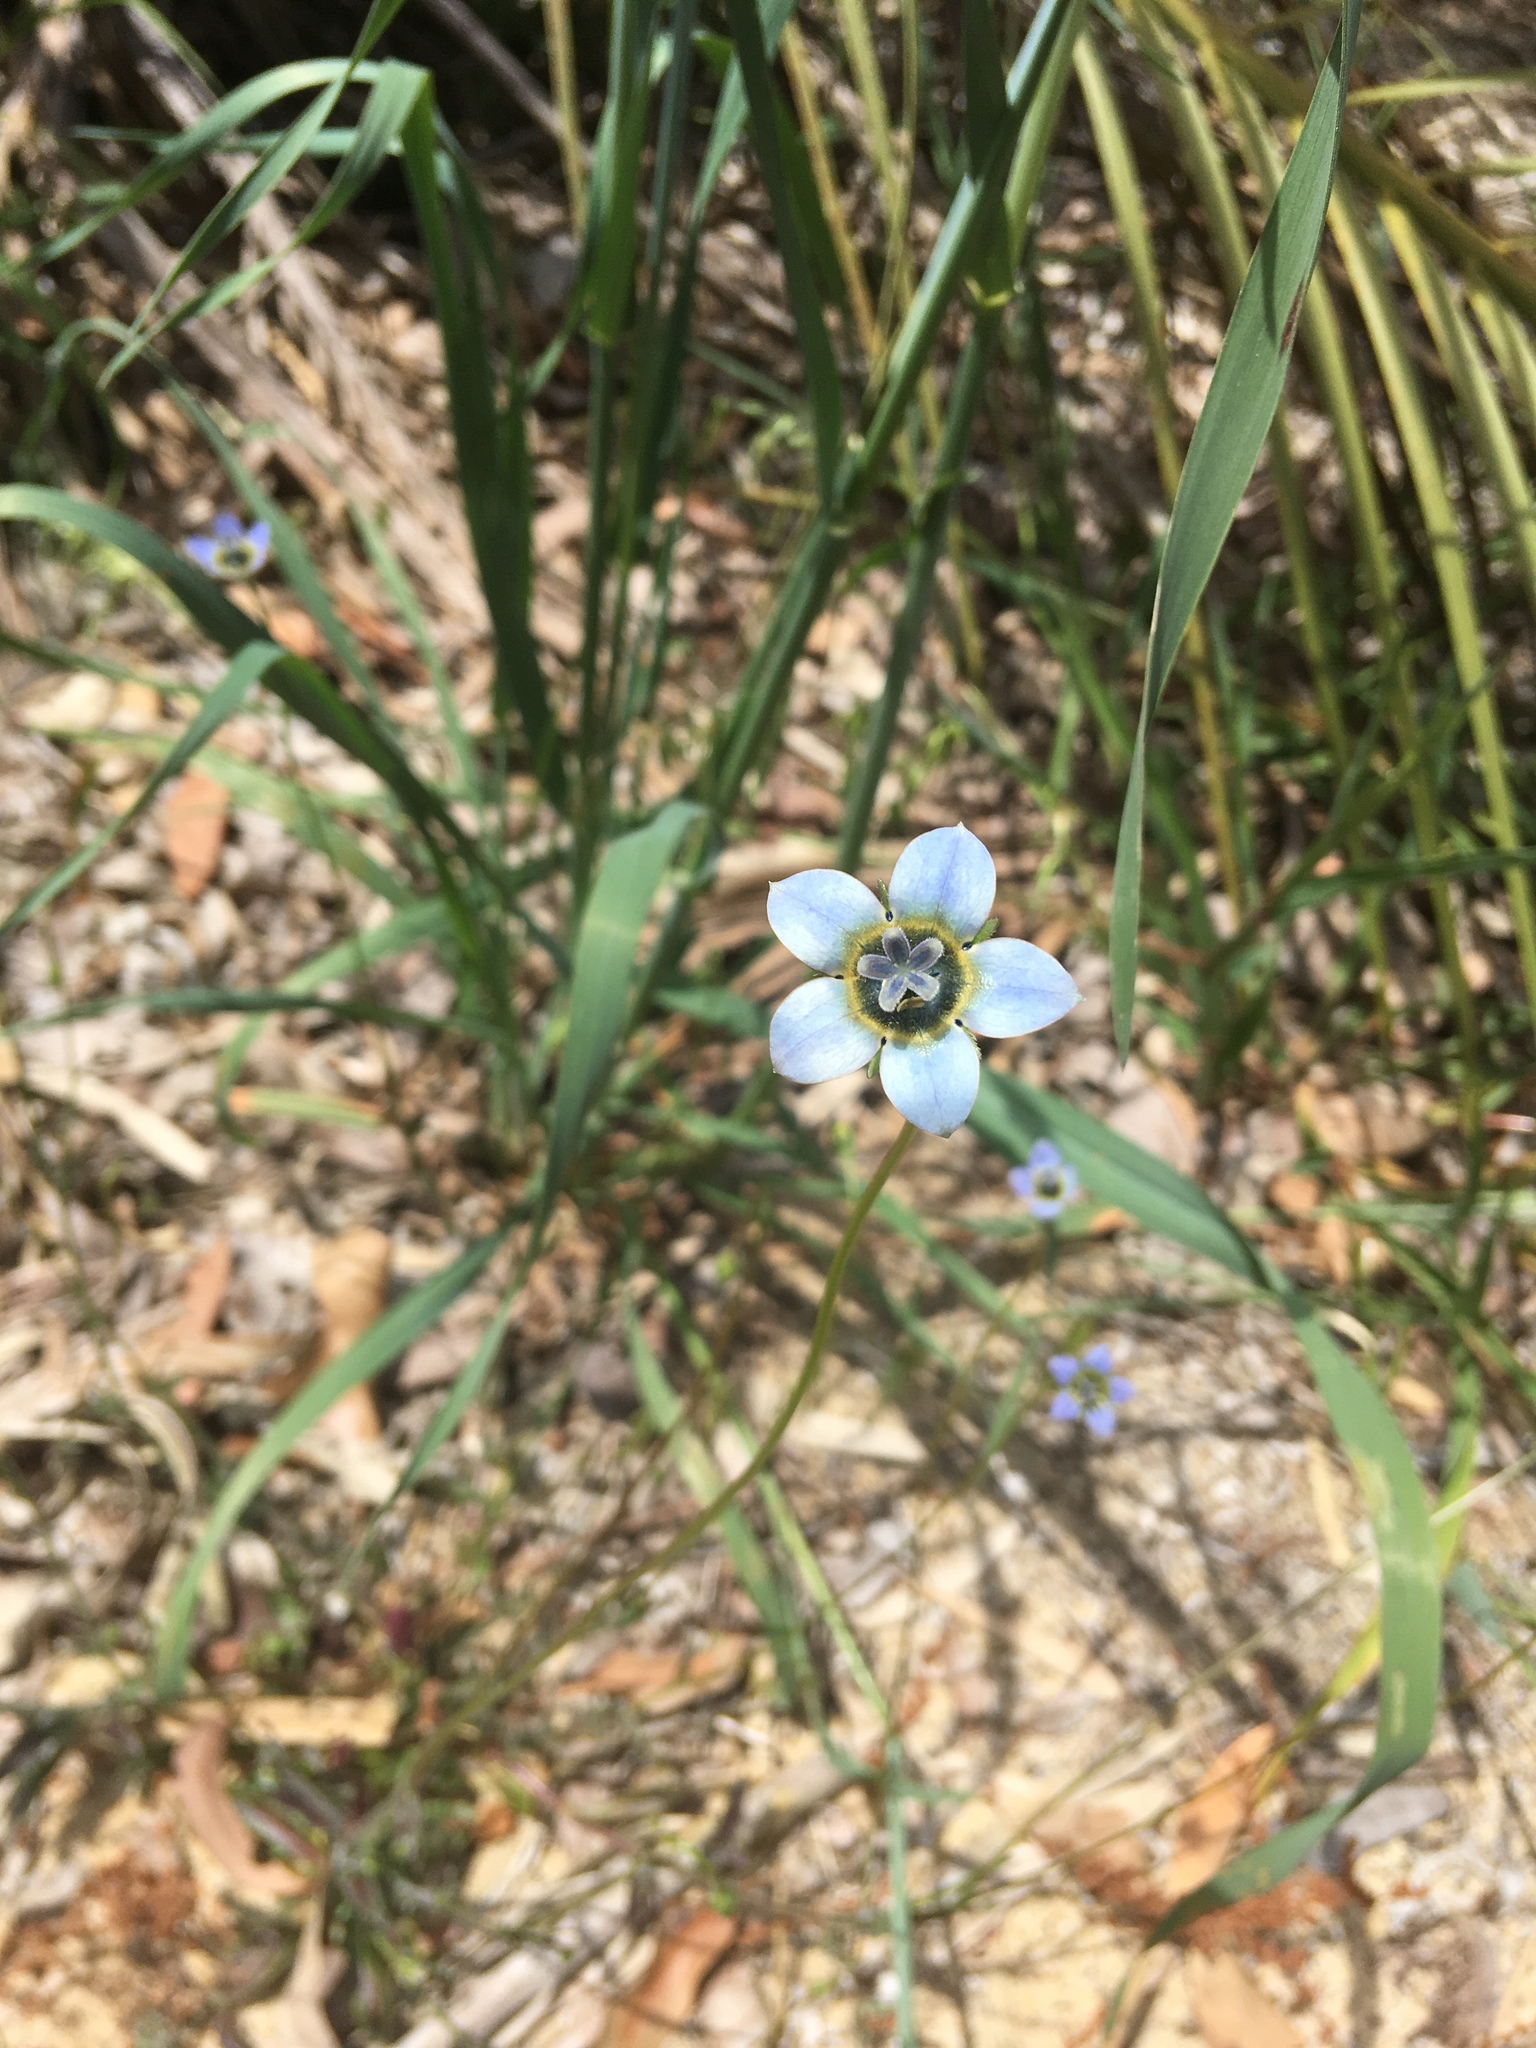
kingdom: Plantae
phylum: Tracheophyta
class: Magnoliopsida
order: Asterales
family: Campanulaceae
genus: Wahlenbergia
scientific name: Wahlenbergia capensis
